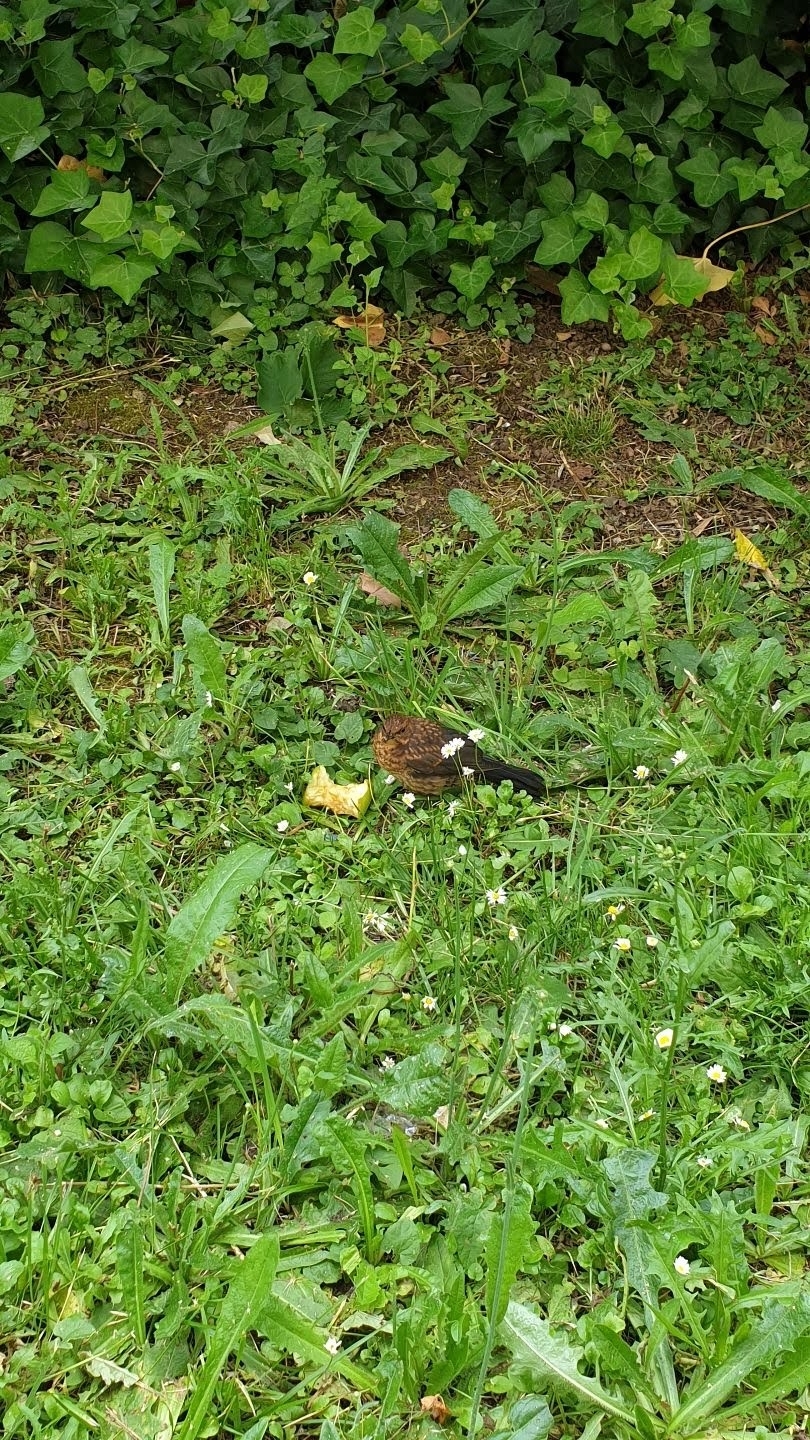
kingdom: Animalia
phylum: Chordata
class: Aves
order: Passeriformes
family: Turdidae
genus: Turdus
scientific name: Turdus merula
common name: Common blackbird
